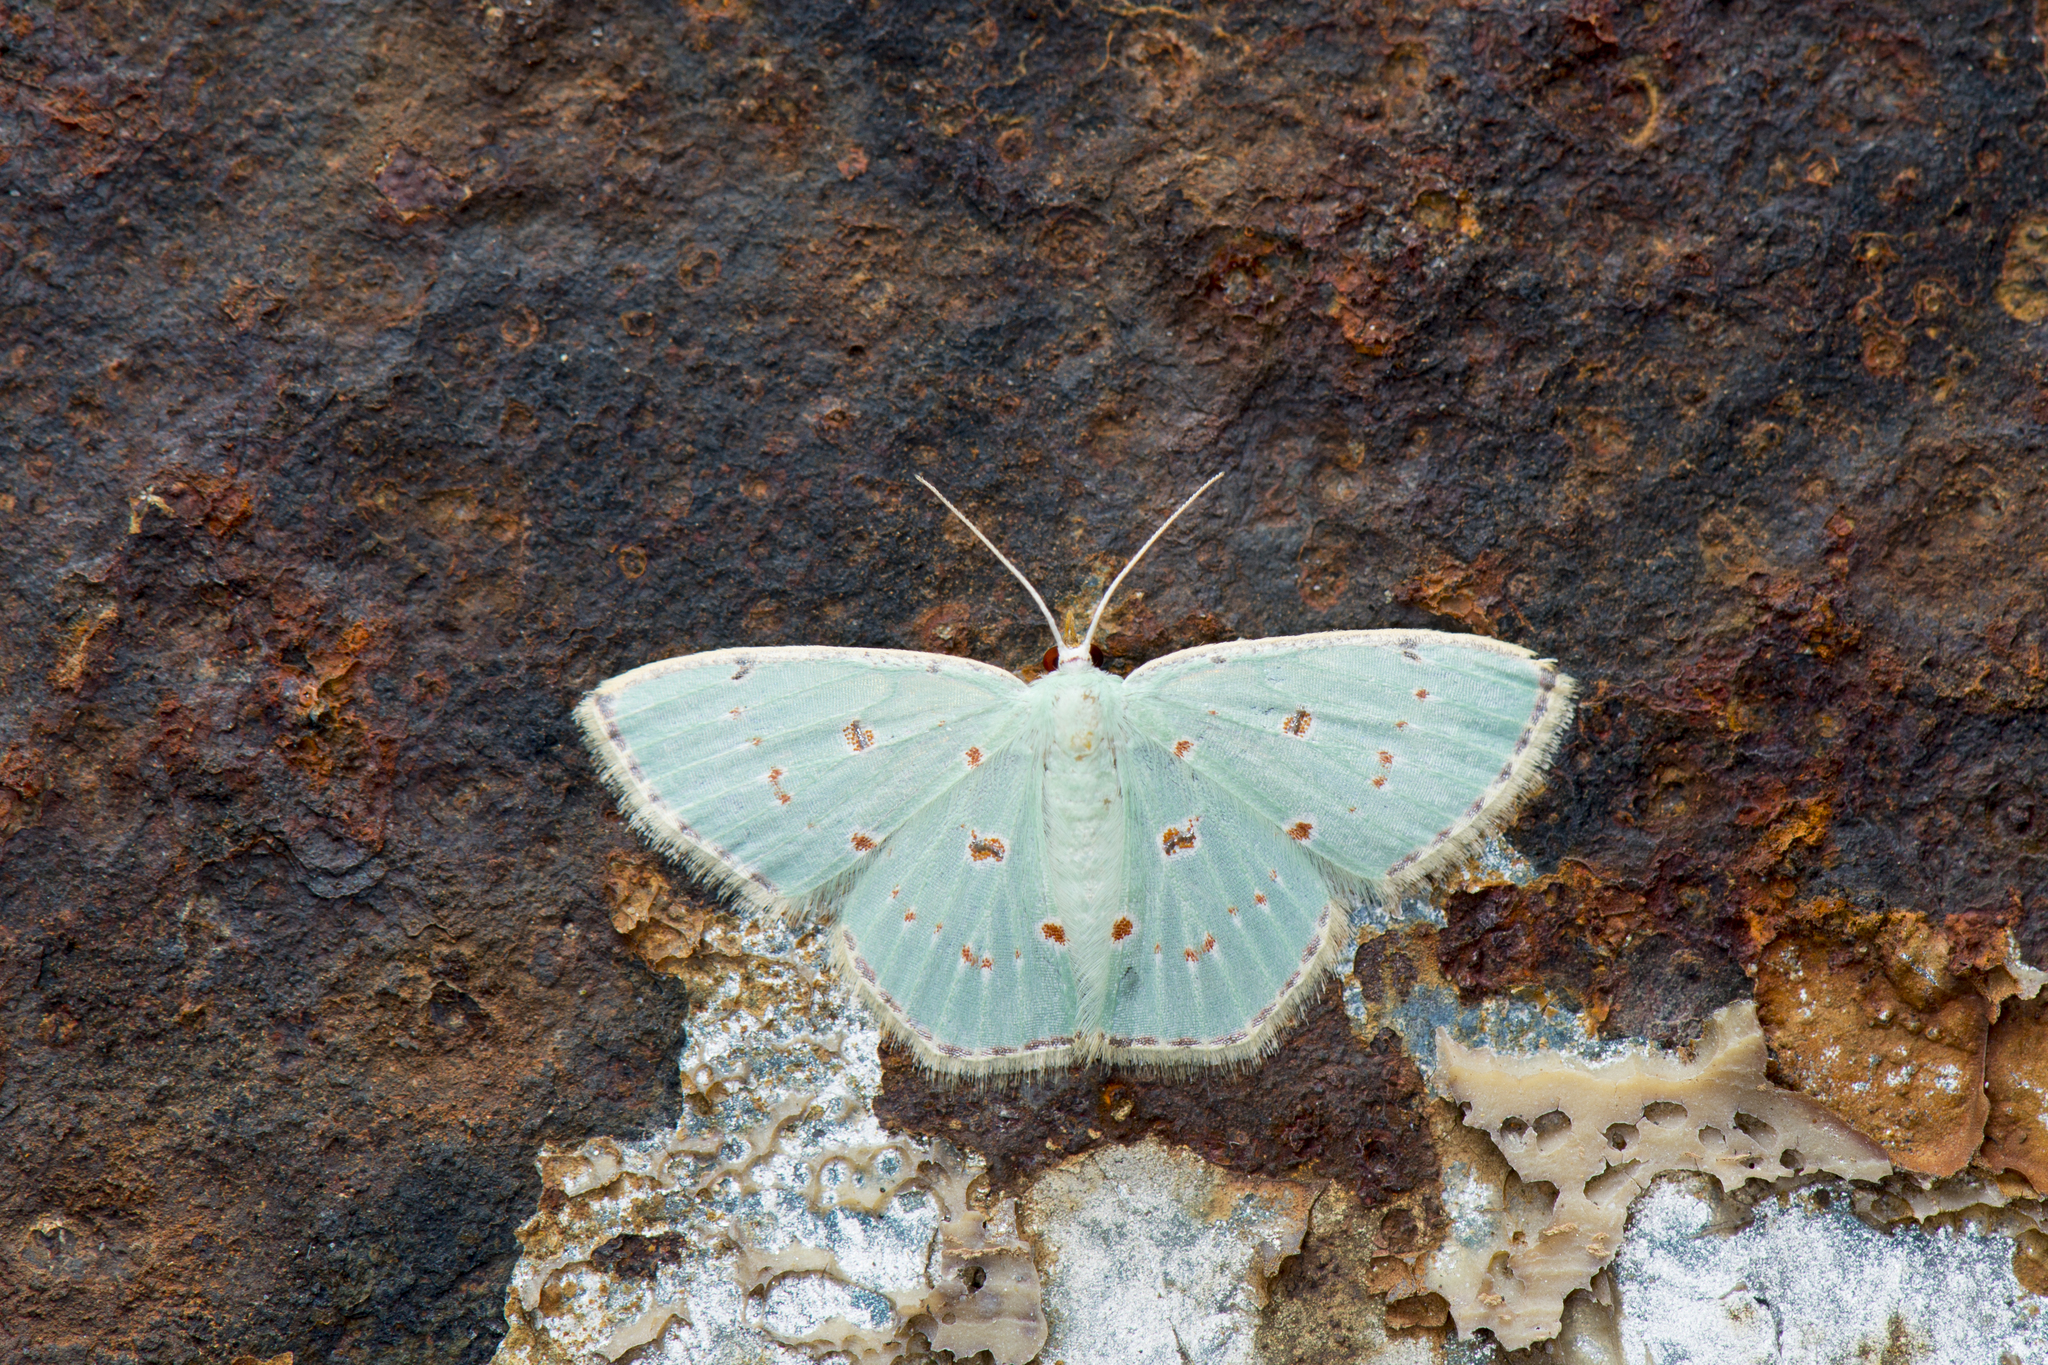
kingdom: Animalia
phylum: Arthropoda
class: Insecta
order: Lepidoptera
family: Geometridae
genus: Comostola
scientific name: Comostola laesaria
